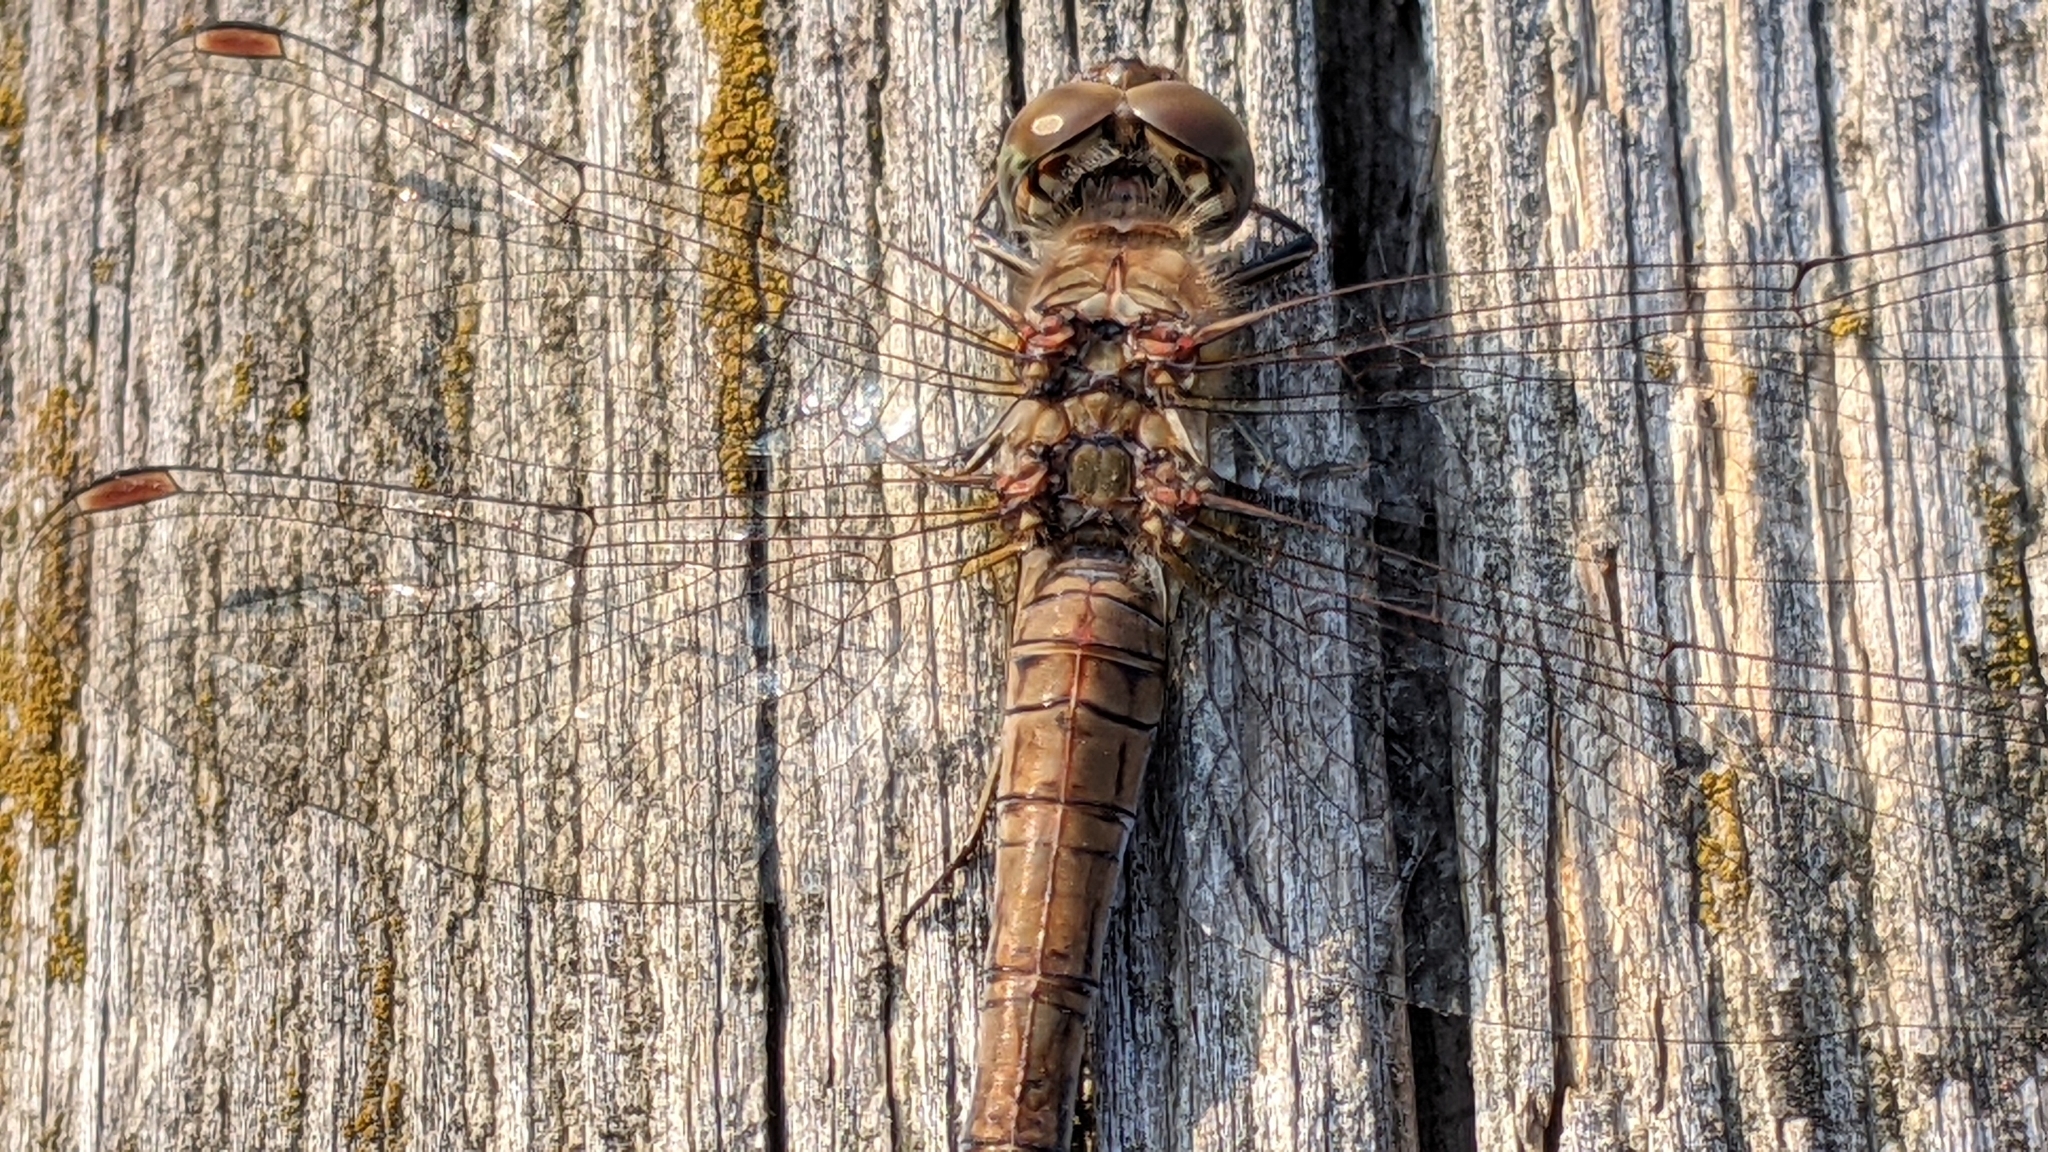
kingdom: Animalia
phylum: Arthropoda
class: Insecta
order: Odonata
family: Libellulidae
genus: Sympetrum
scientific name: Sympetrum striolatum
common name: Common darter
